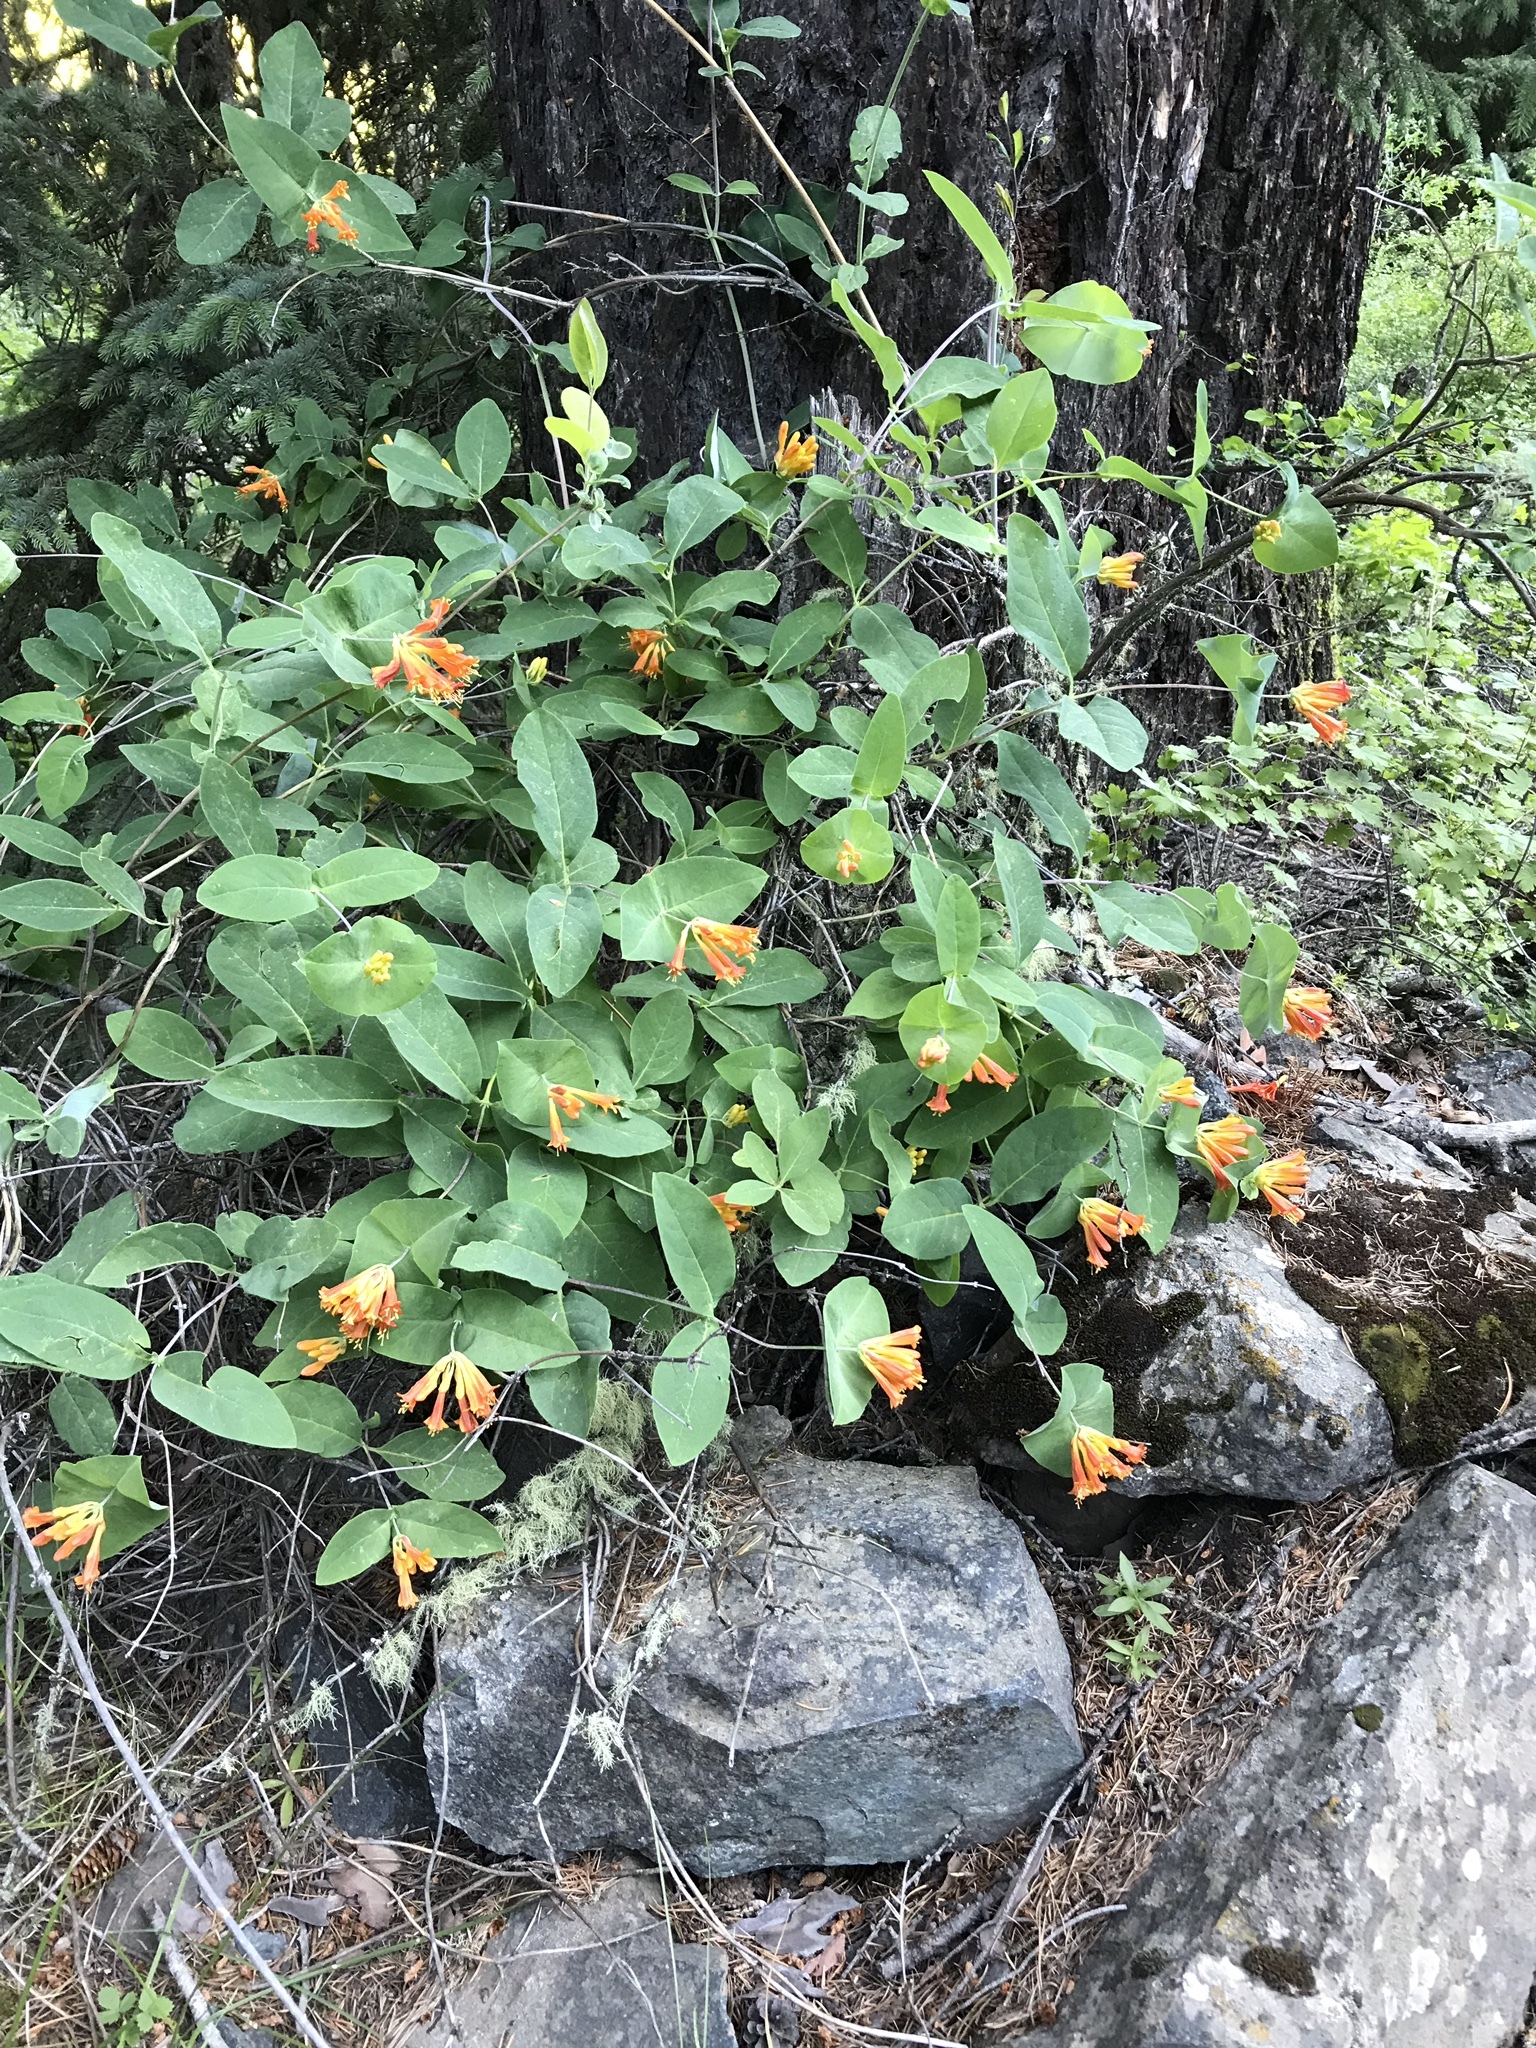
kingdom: Plantae
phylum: Tracheophyta
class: Magnoliopsida
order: Dipsacales
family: Caprifoliaceae
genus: Lonicera
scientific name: Lonicera ciliosa
